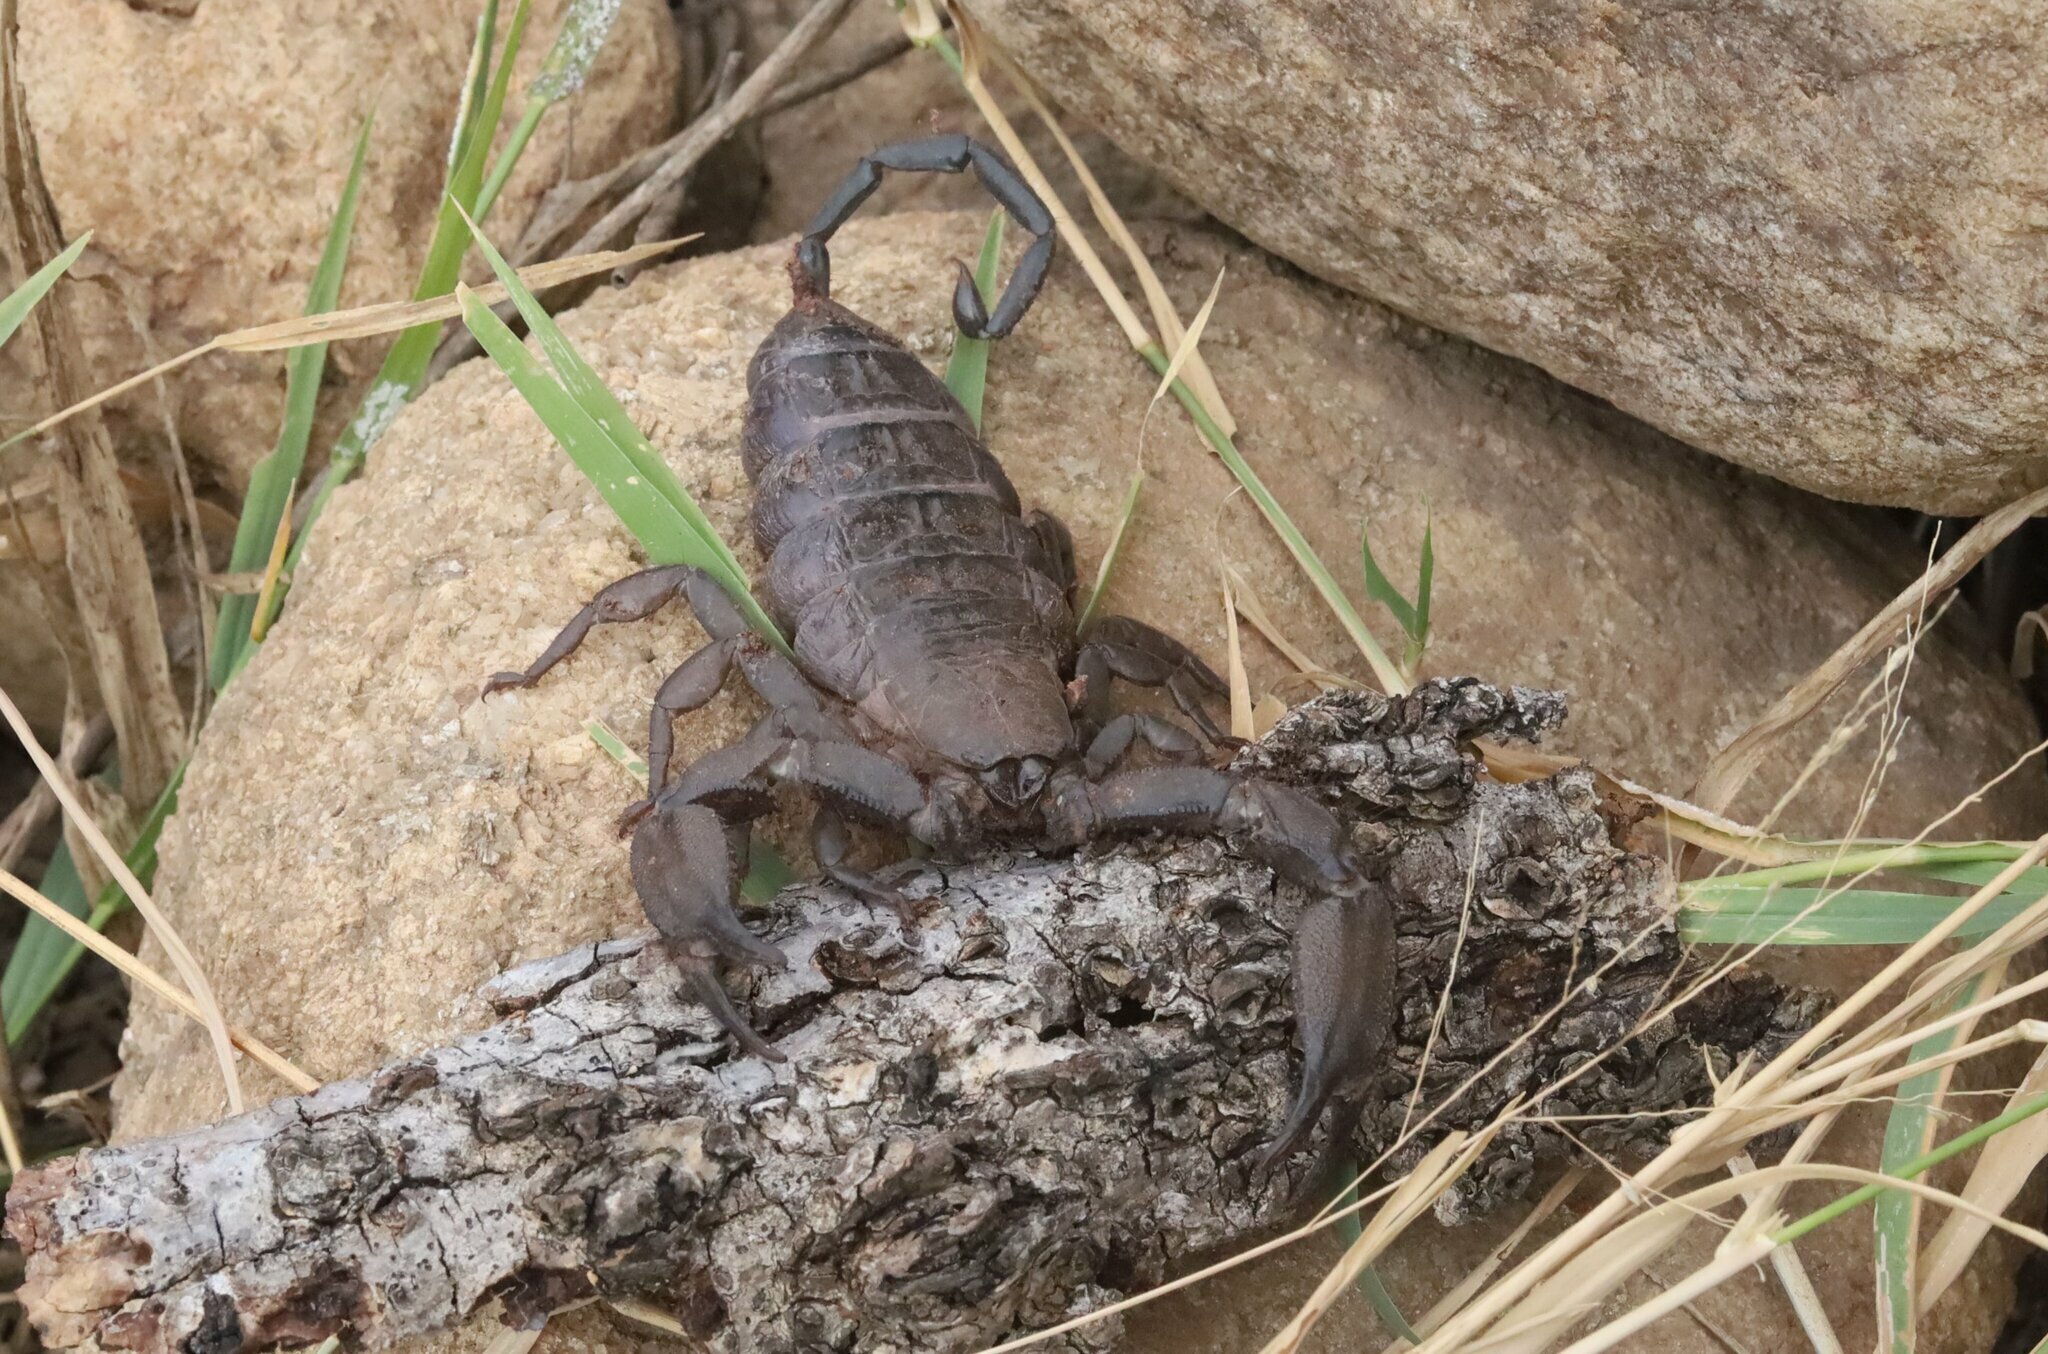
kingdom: Animalia
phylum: Arthropoda
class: Arachnida
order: Scorpiones
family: Hormuridae
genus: Hadogenes
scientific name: Hadogenes granulatus
